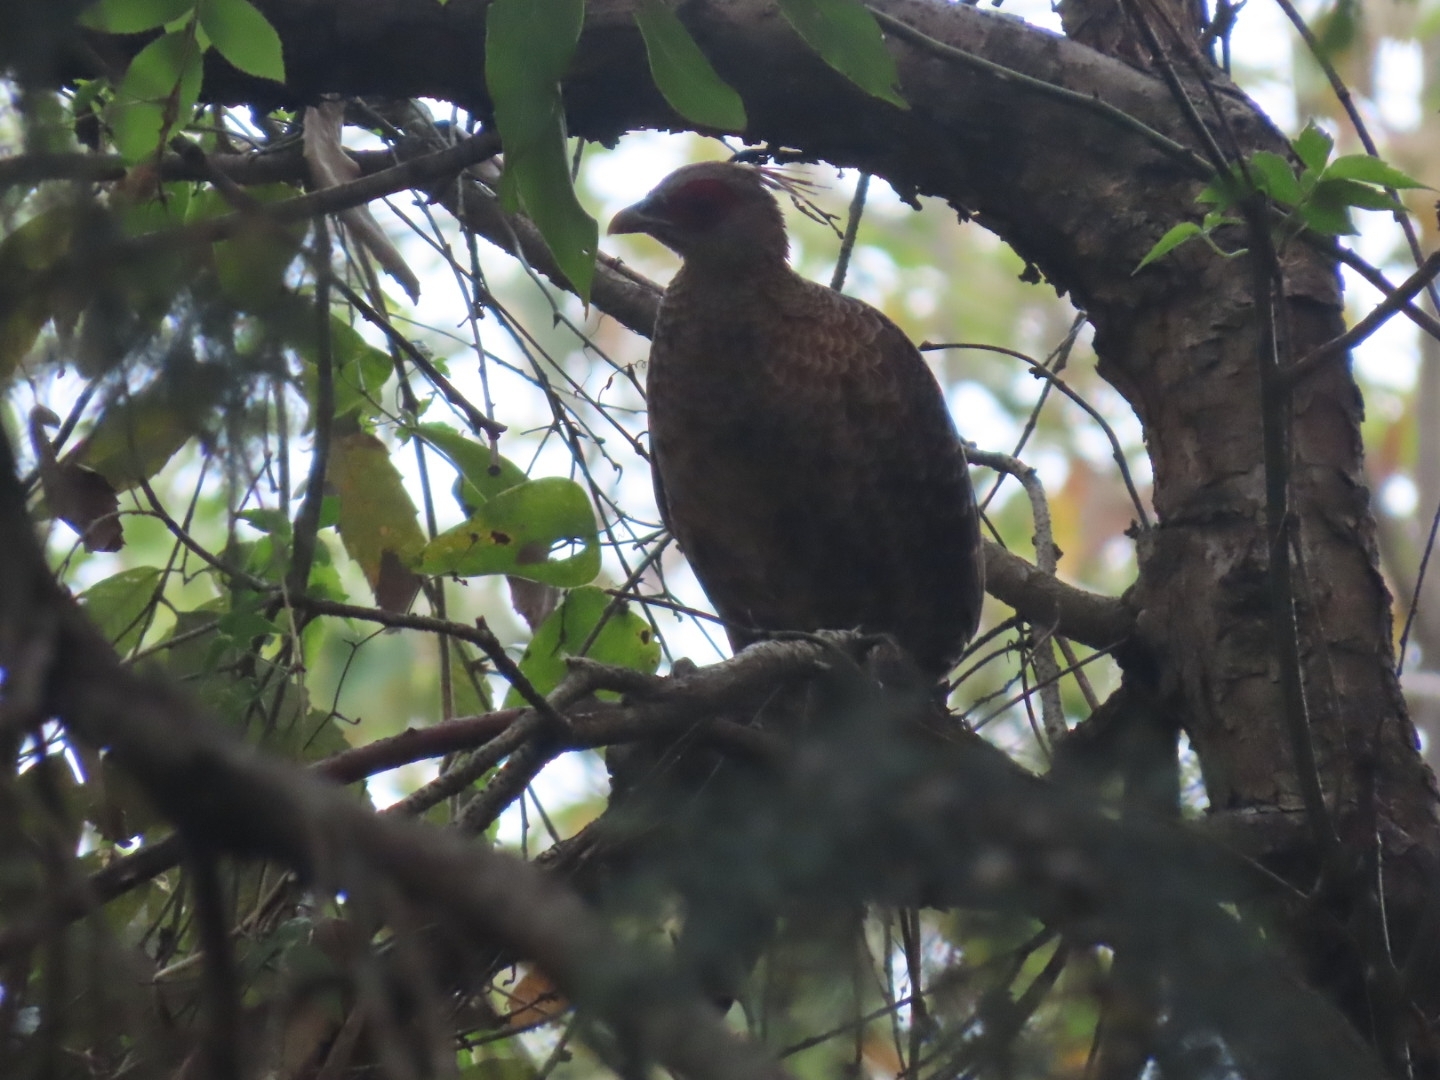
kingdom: Animalia
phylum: Chordata
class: Aves
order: Galliformes
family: Phasianidae
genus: Lophura
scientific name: Lophura leucomelanos
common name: Kalij pheasant
